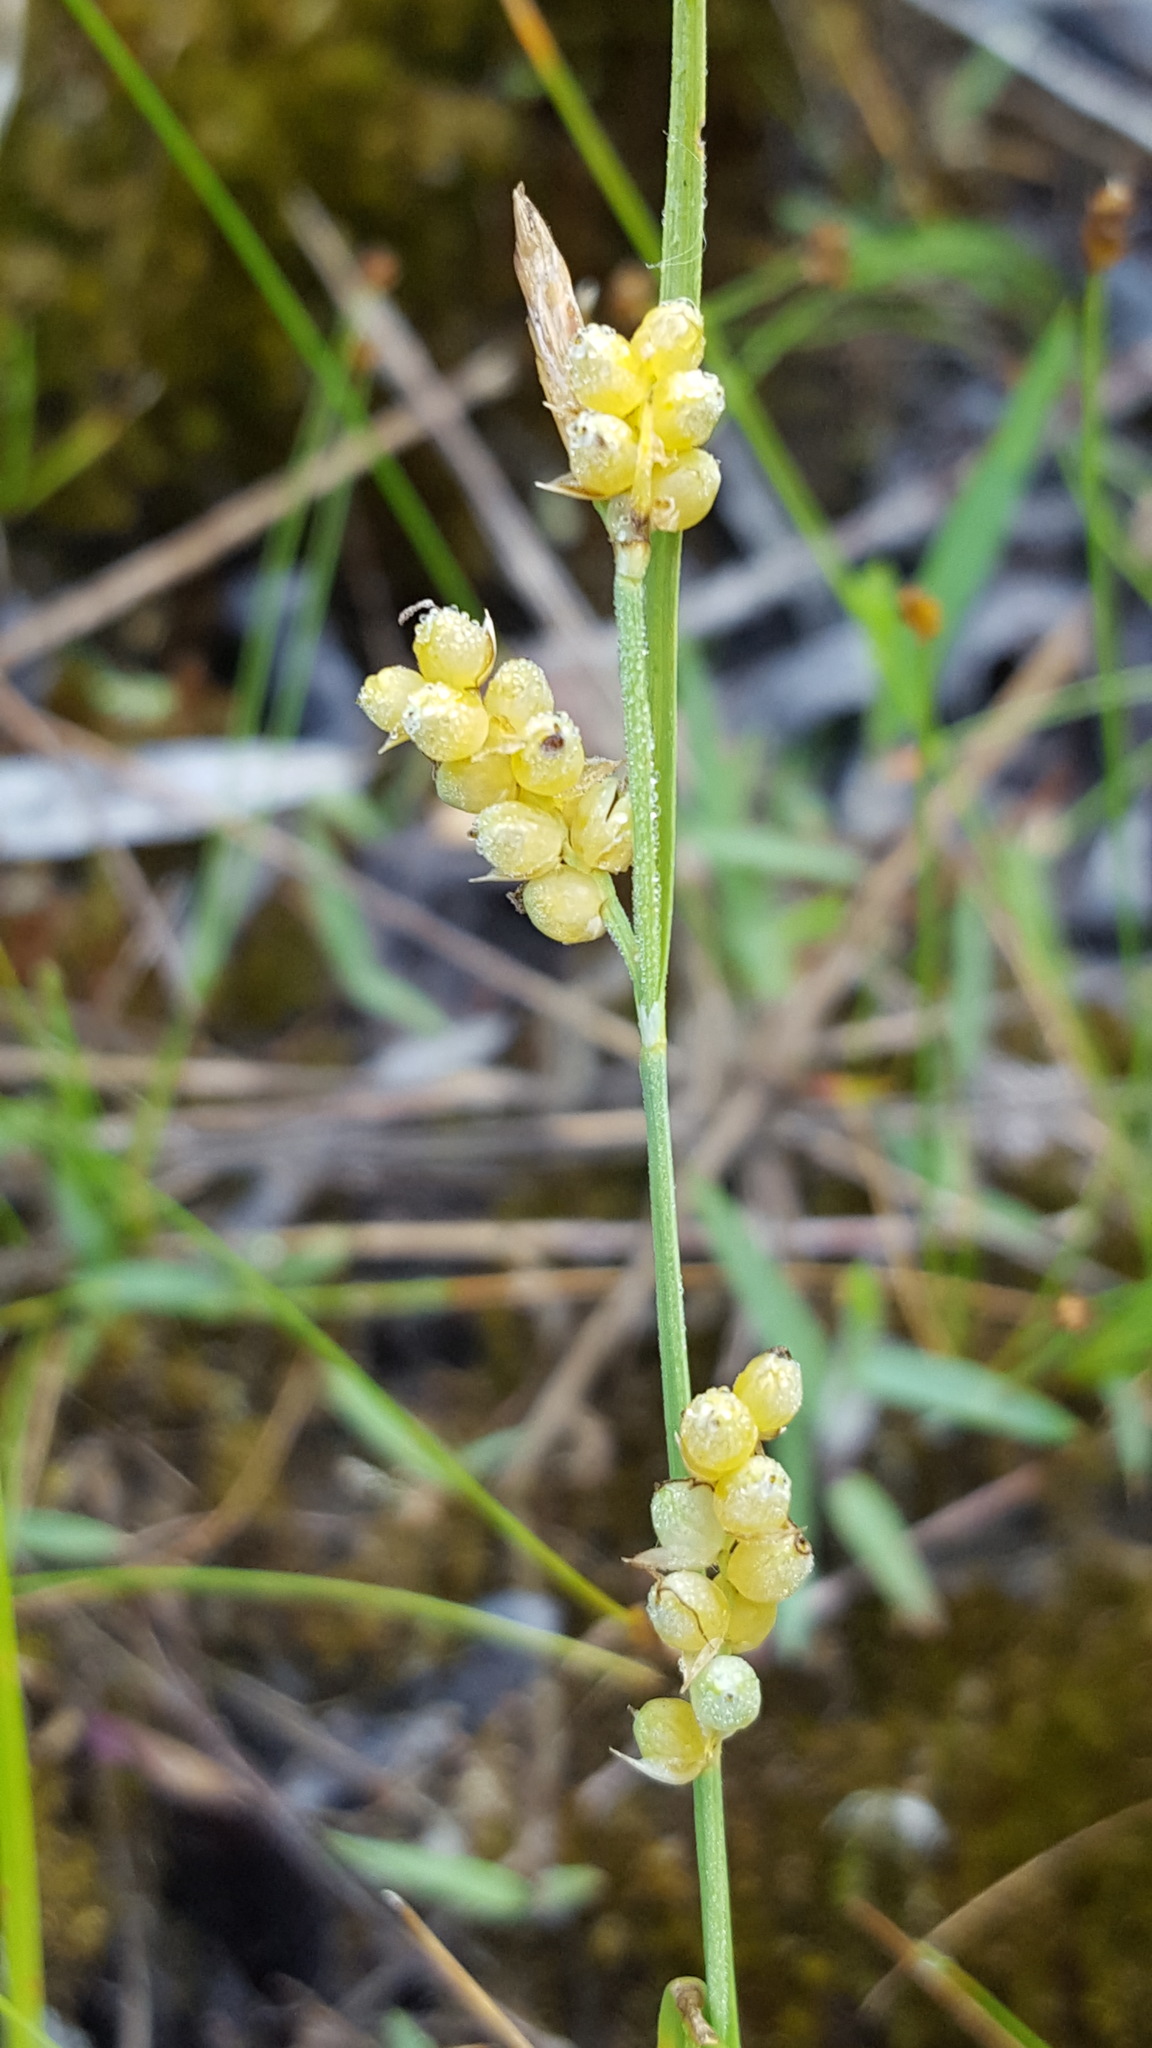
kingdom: Plantae
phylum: Tracheophyta
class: Liliopsida
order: Poales
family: Cyperaceae
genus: Carex
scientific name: Carex aurea
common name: Golden sedge
